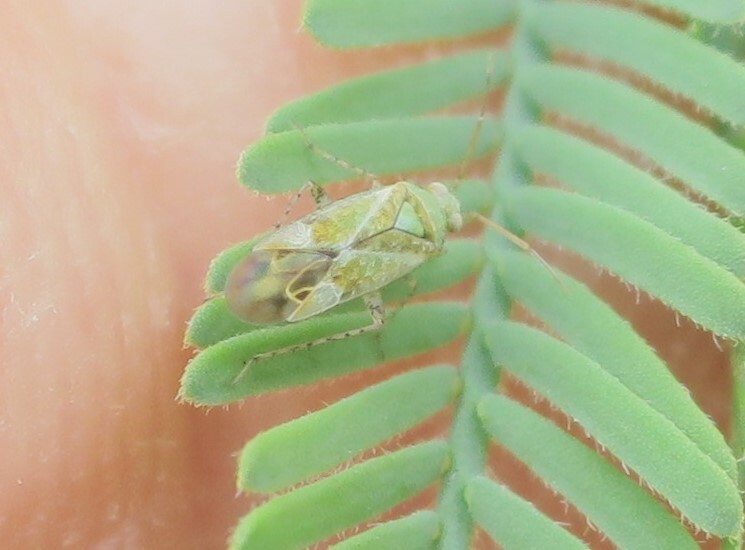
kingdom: Animalia
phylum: Arthropoda
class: Insecta
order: Hemiptera
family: Miridae
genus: Leptidolon
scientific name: Leptidolon
